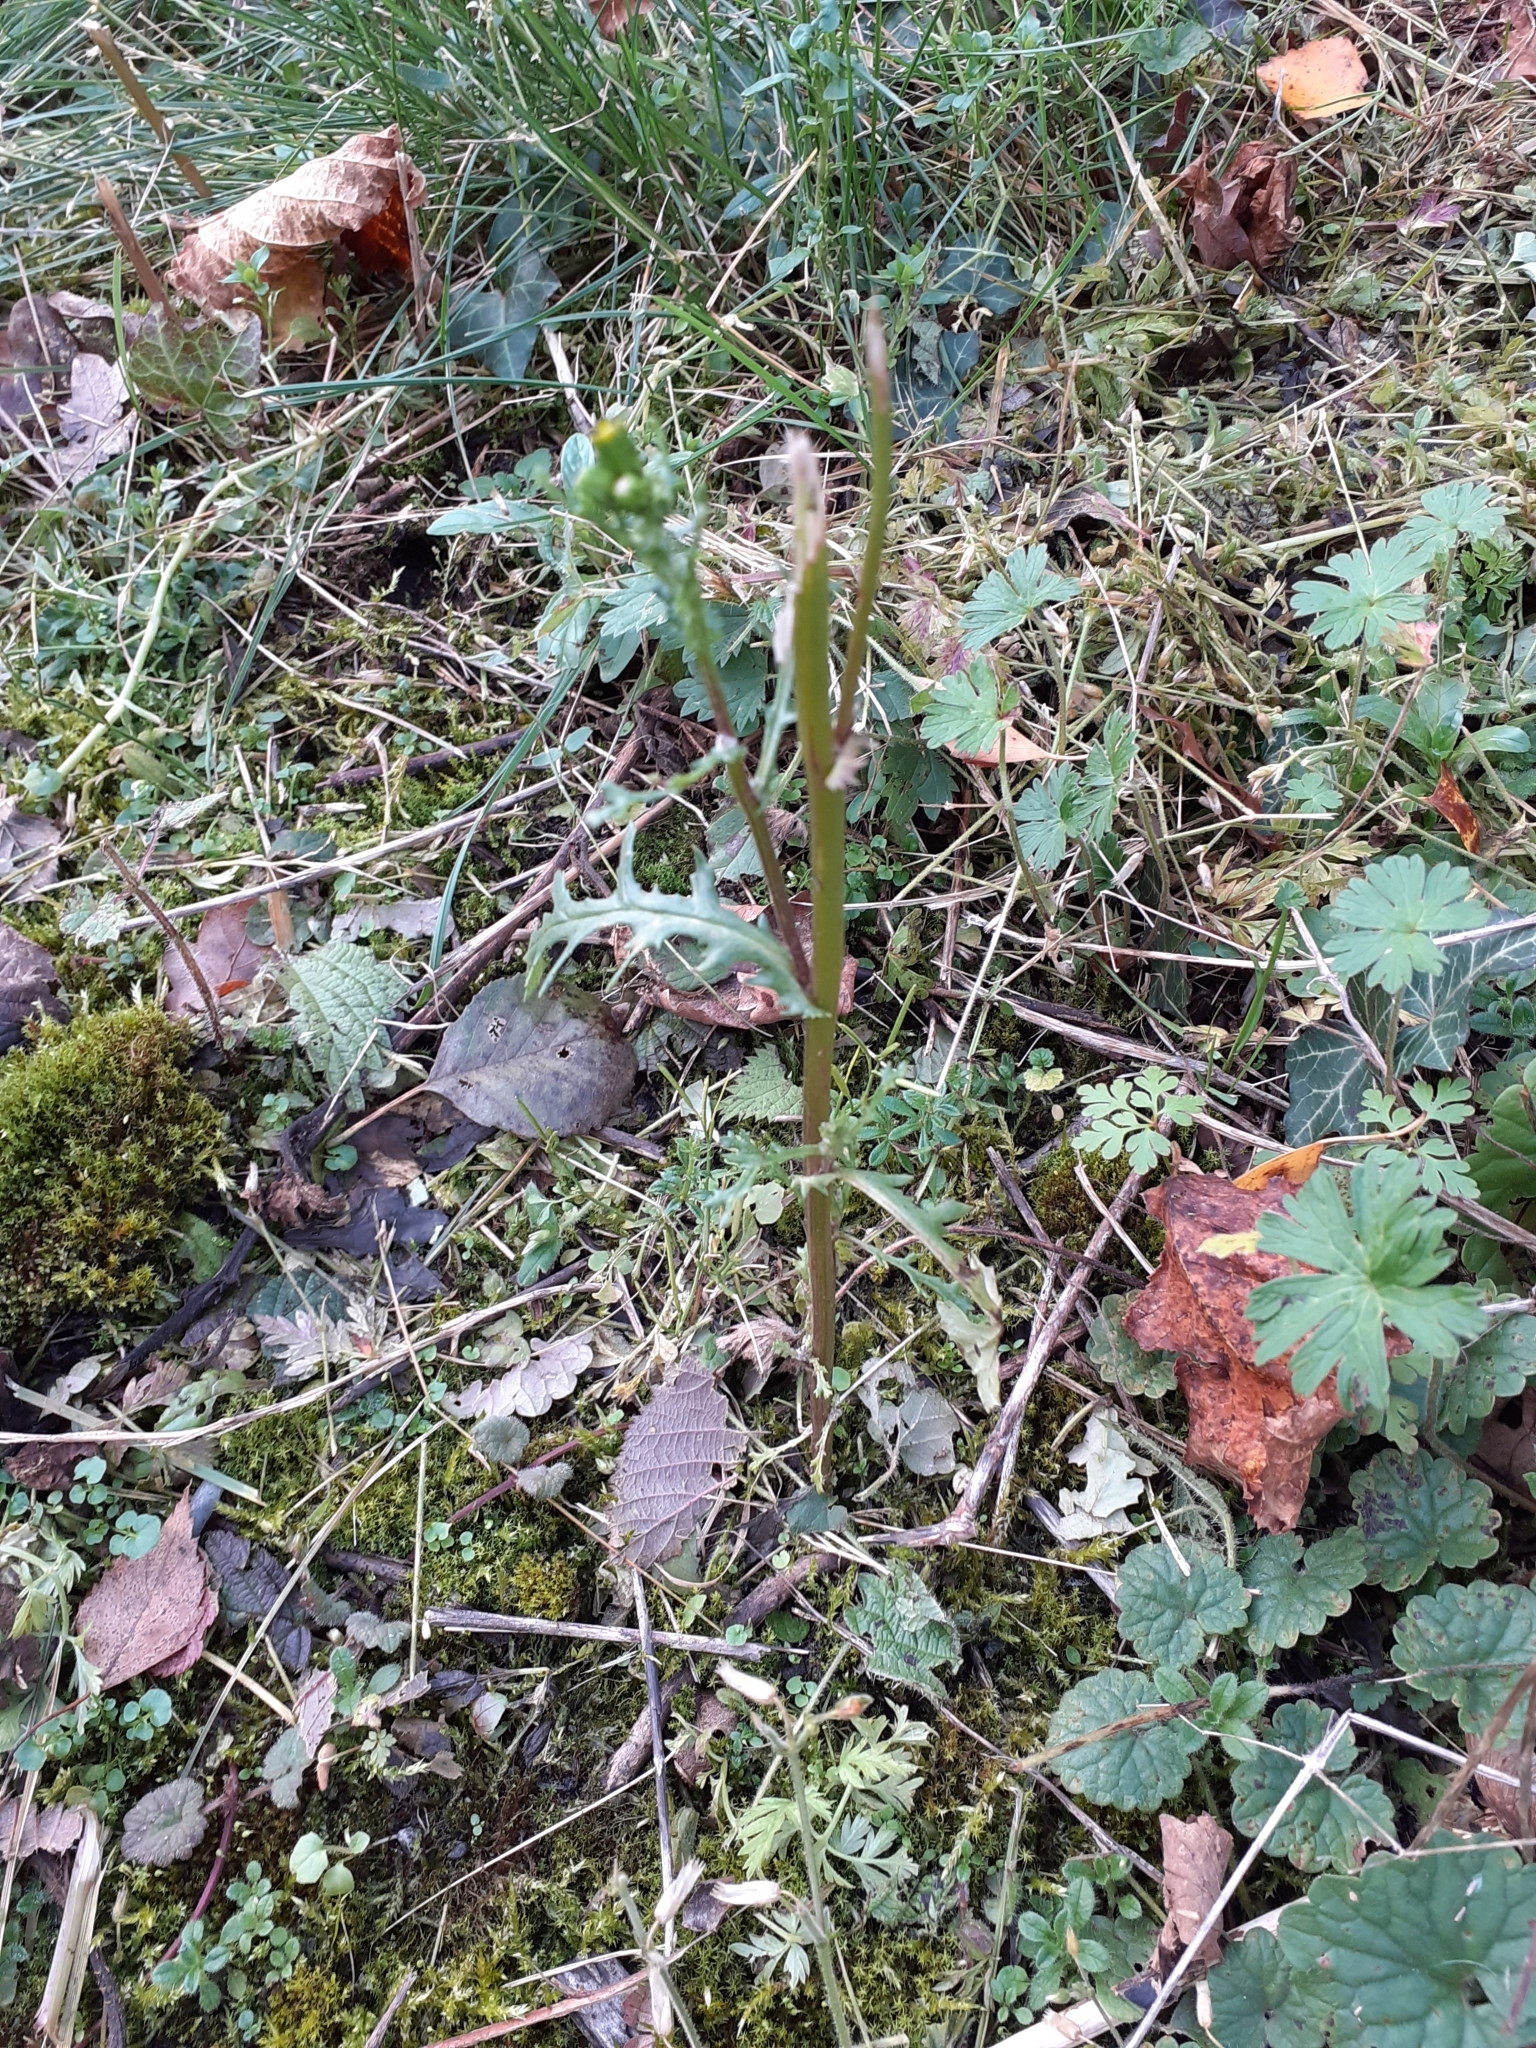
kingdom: Plantae
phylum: Tracheophyta
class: Magnoliopsida
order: Asterales
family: Asteraceae
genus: Senecio
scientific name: Senecio vulgaris
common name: Old-man-in-the-spring
